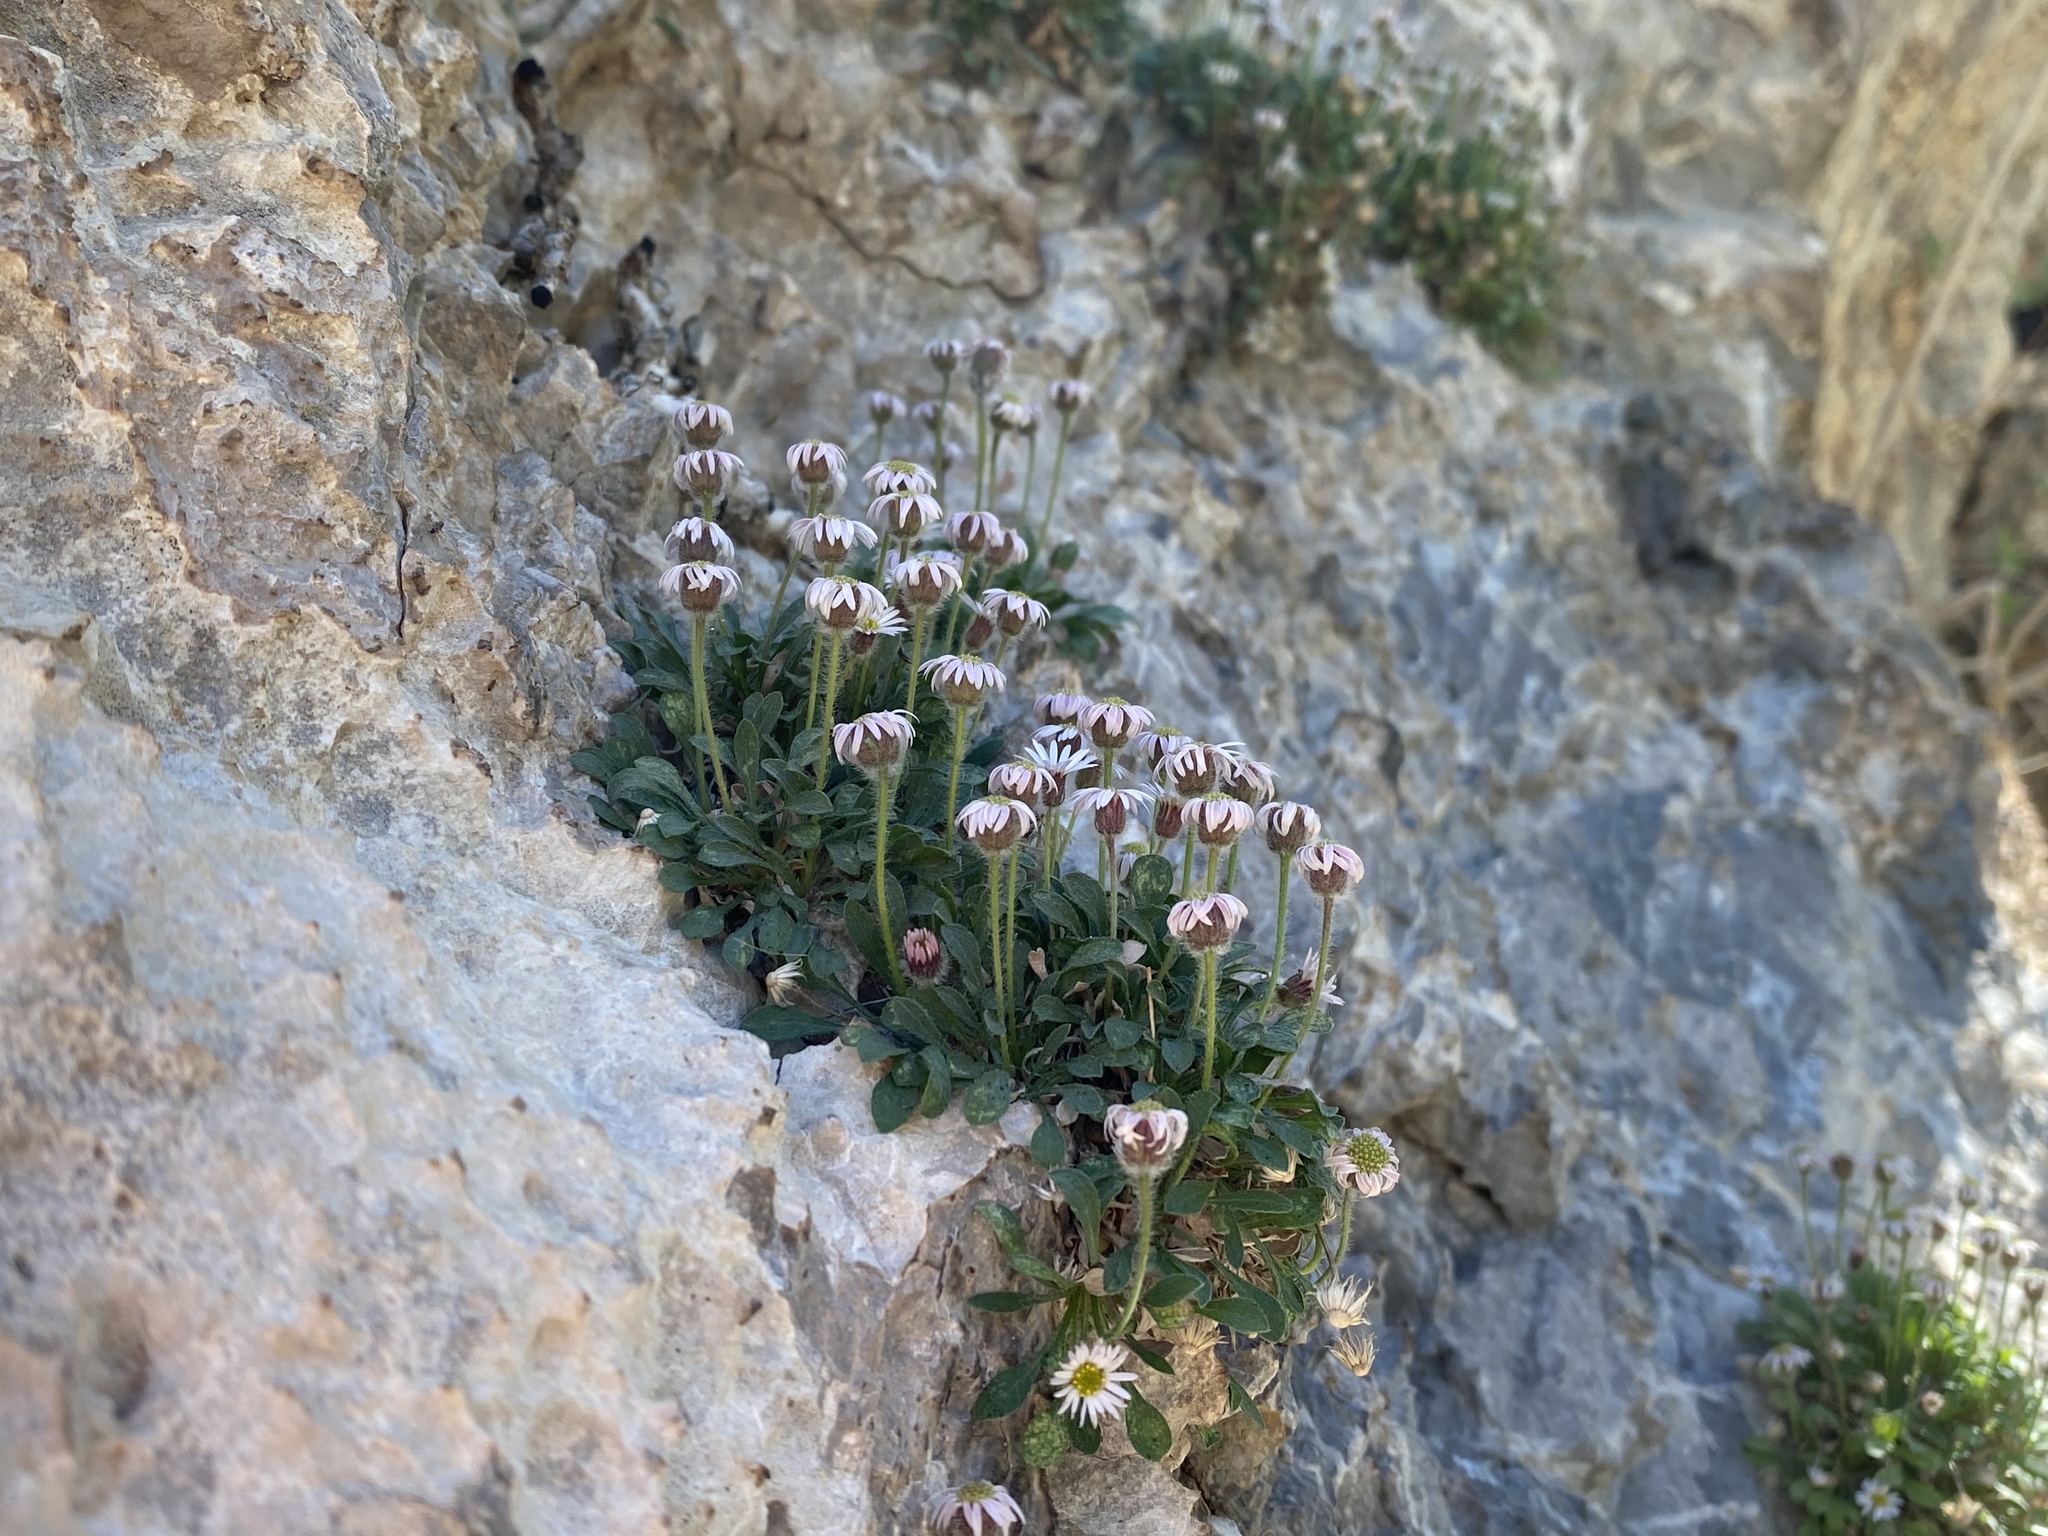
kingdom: Plantae
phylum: Tracheophyta
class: Magnoliopsida
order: Asterales
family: Asteraceae
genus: Erigeron
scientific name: Erigeron uncialis
